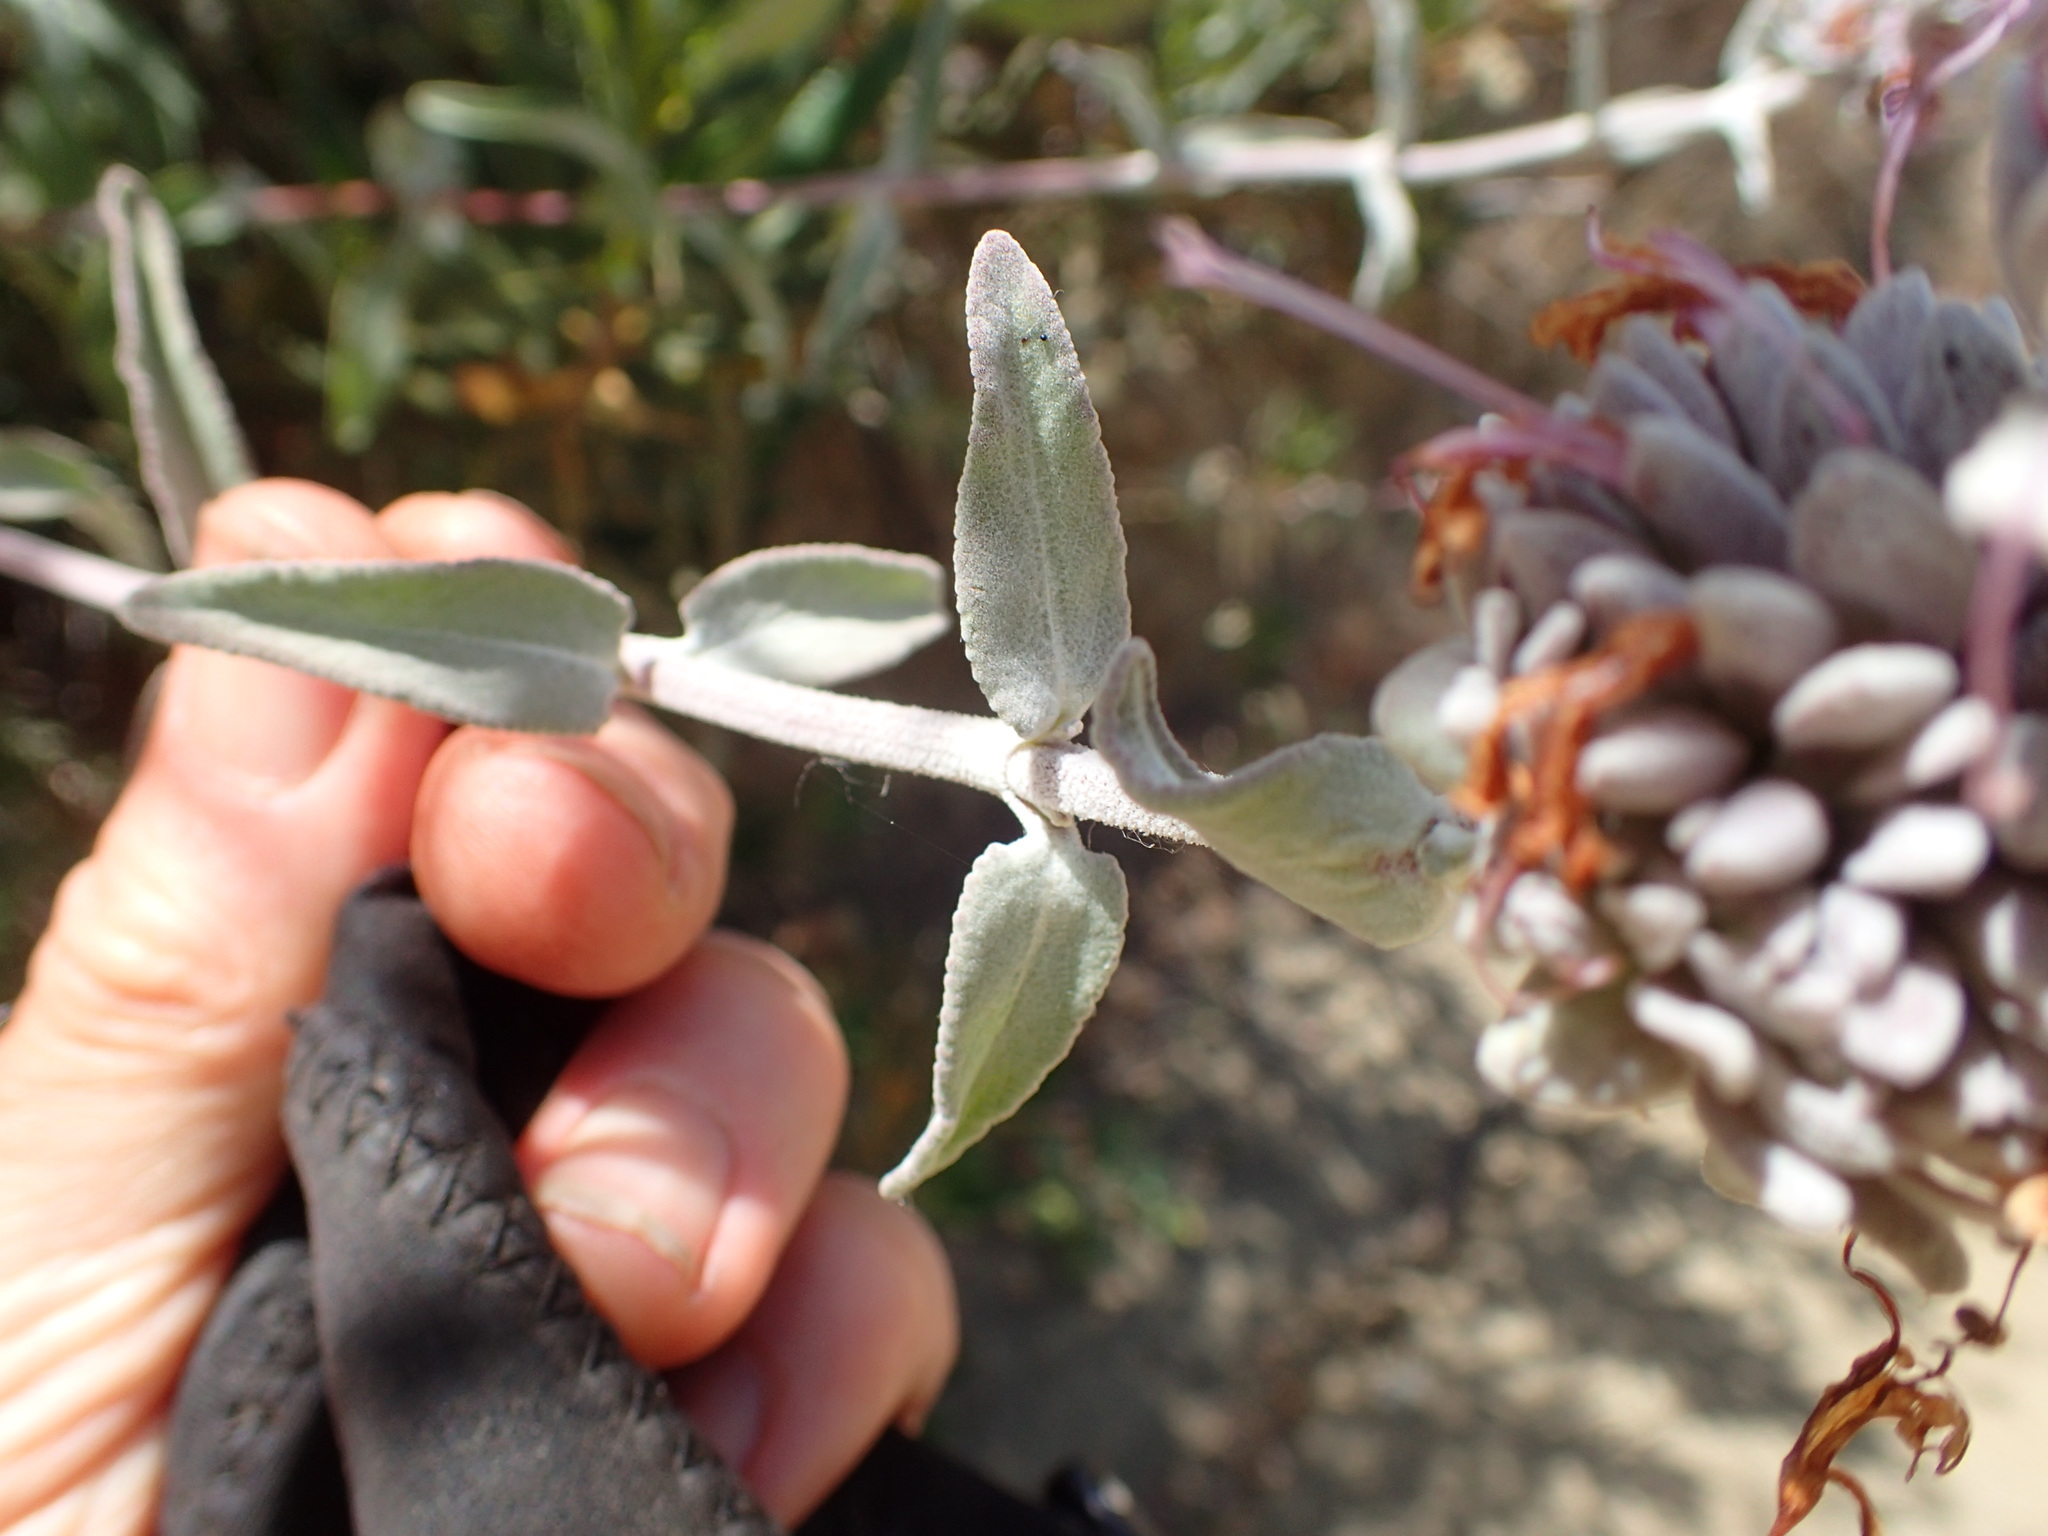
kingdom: Plantae
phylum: Tracheophyta
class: Magnoliopsida
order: Lamiales
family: Lamiaceae
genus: Salvia
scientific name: Salvia leucophylla
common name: Purple sage
